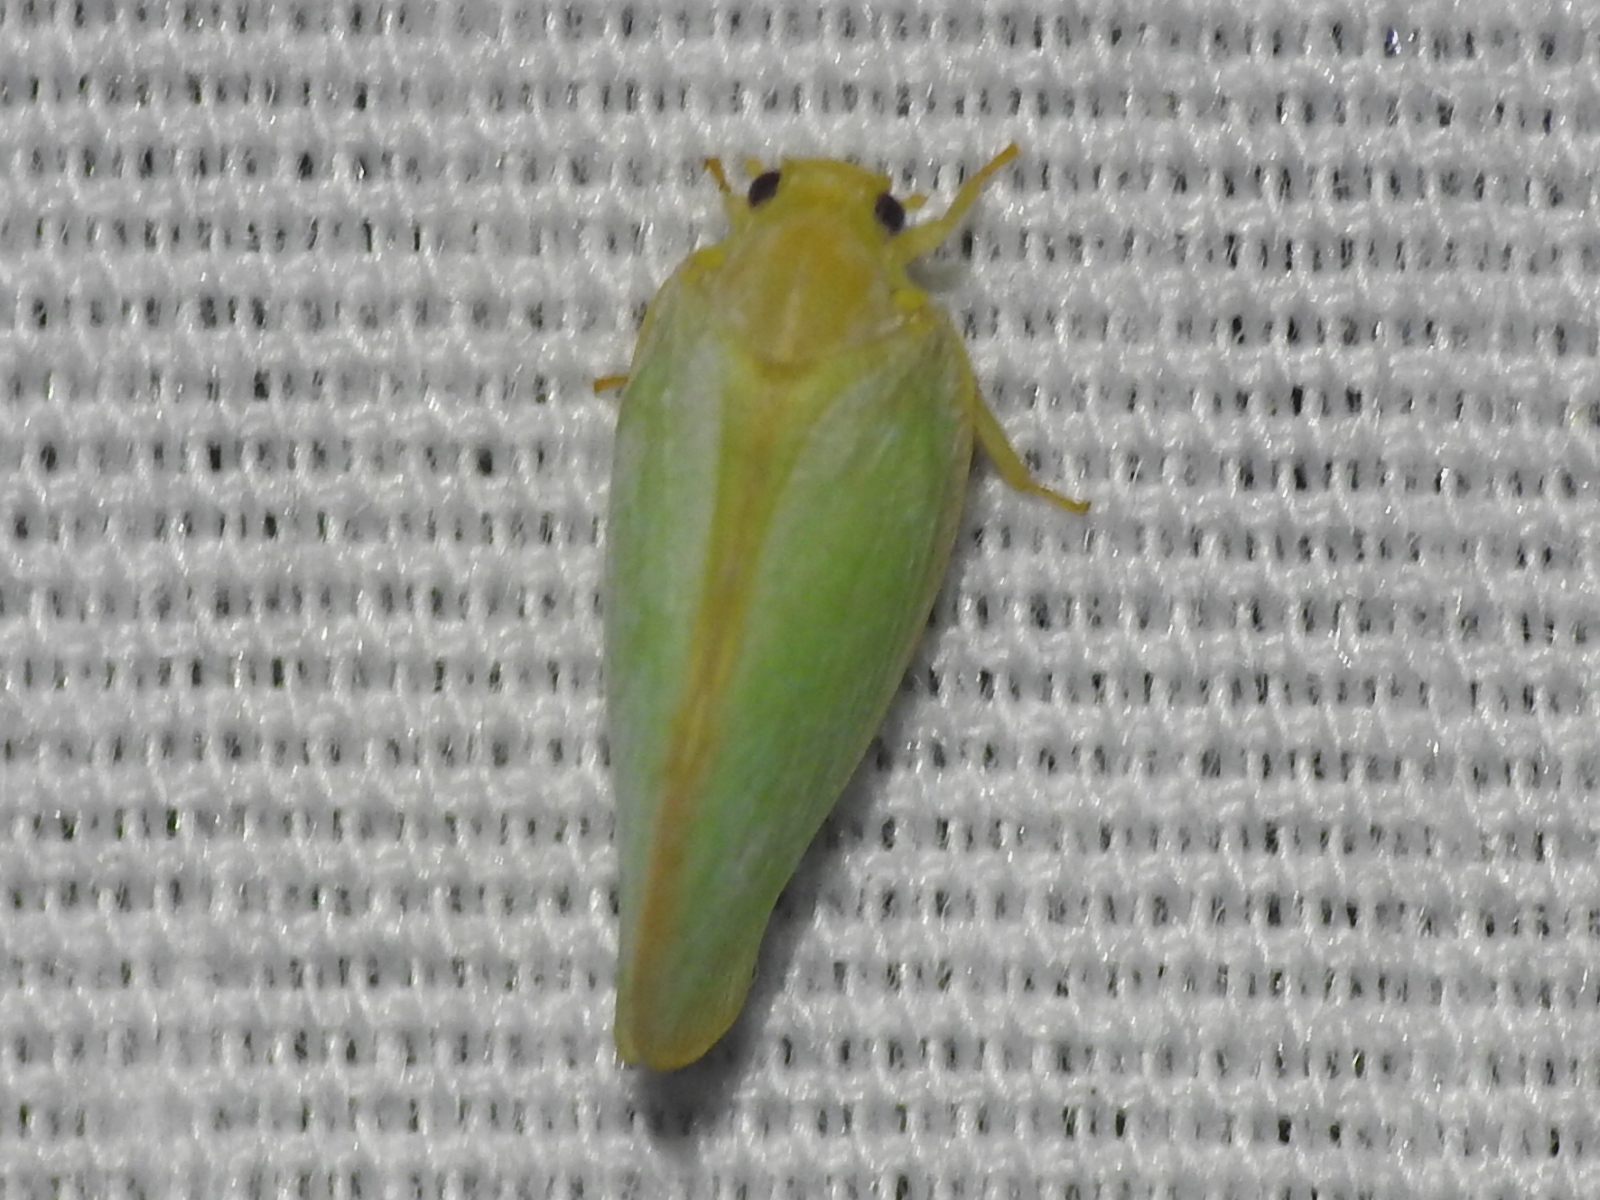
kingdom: Animalia
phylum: Arthropoda
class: Insecta
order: Hemiptera
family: Flatidae
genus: Ormenoides
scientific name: Ormenoides venusta
